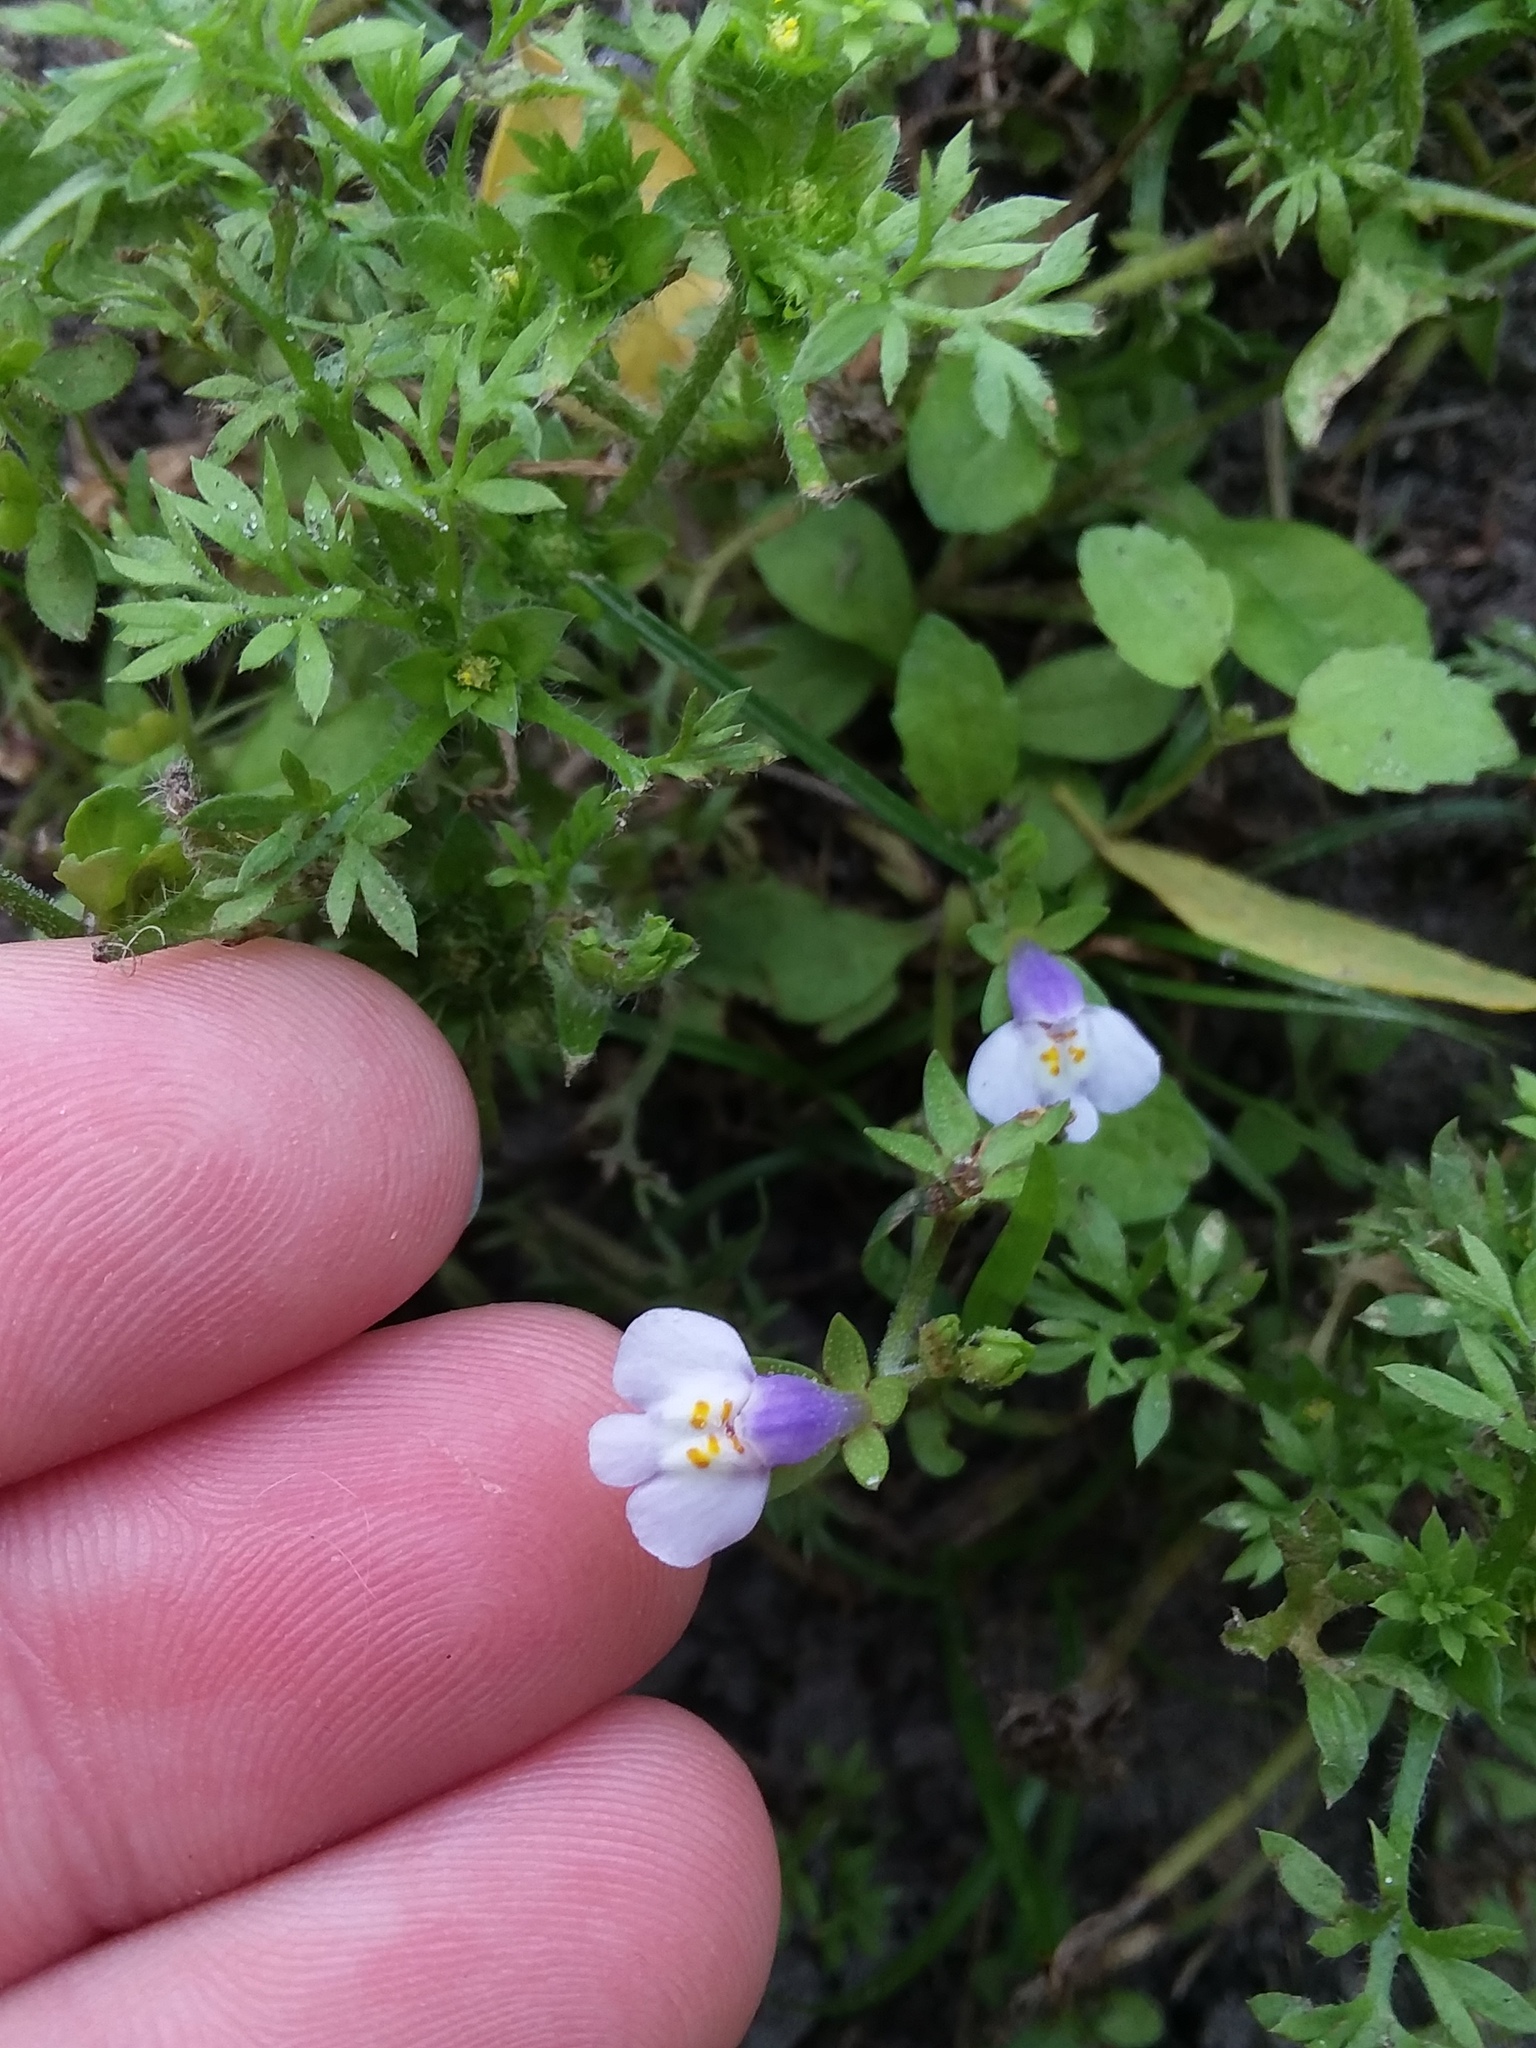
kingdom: Plantae
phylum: Tracheophyta
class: Magnoliopsida
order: Lamiales
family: Mazaceae
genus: Mazus
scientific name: Mazus pumilus
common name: Japanese mazus
